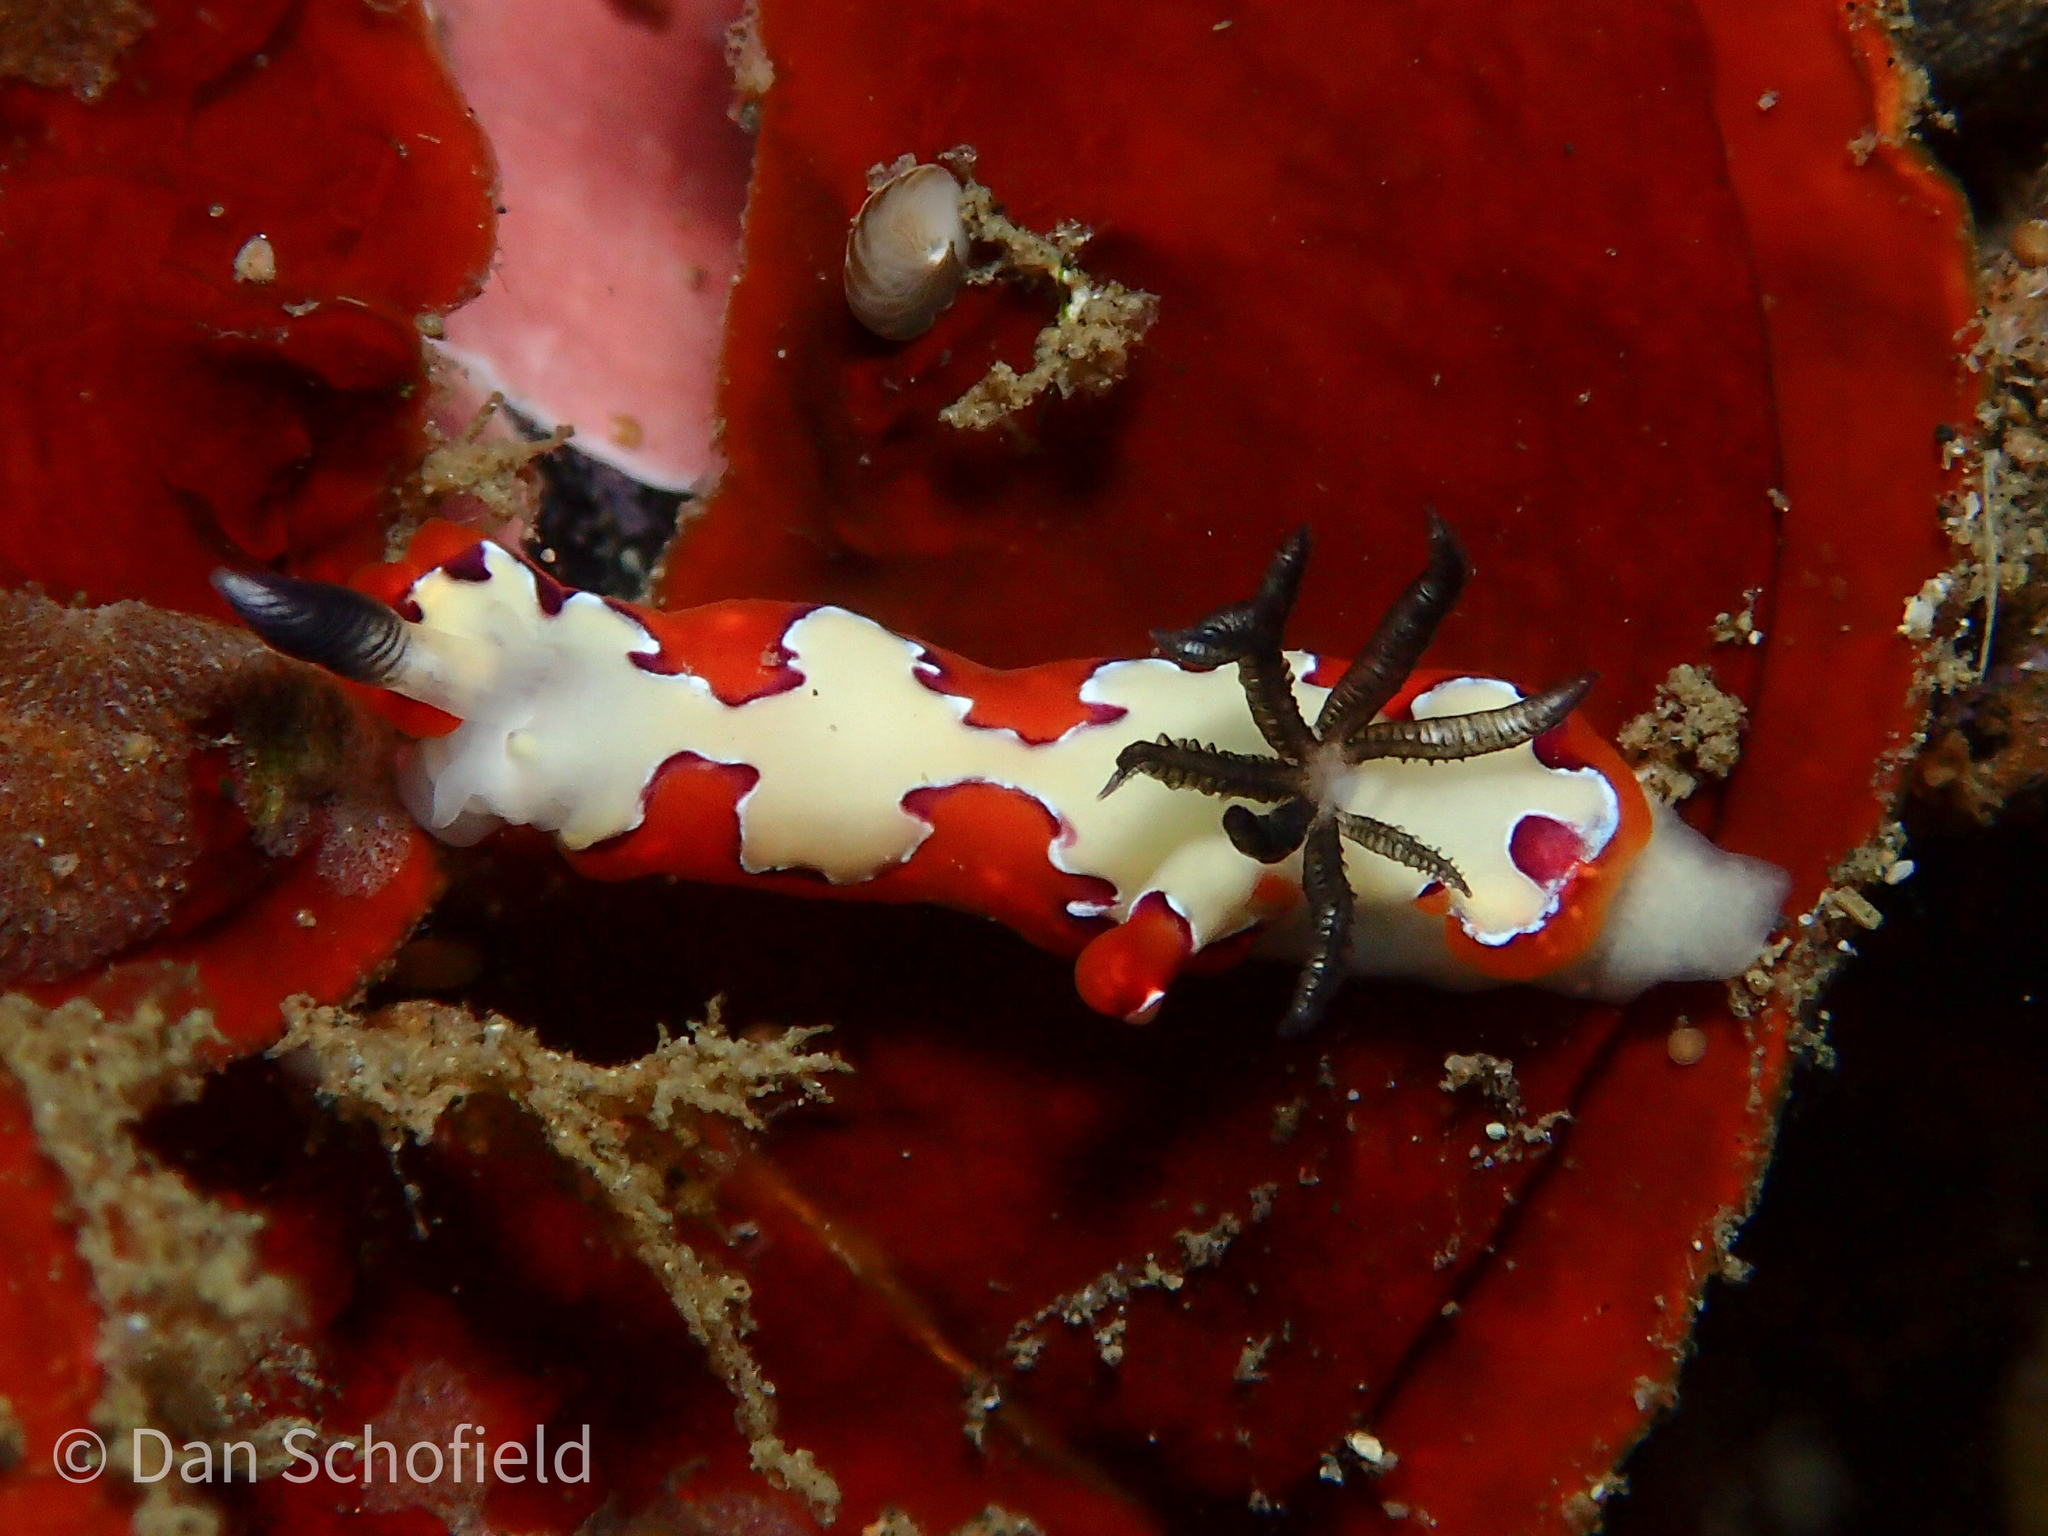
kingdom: Animalia
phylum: Mollusca
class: Gastropoda
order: Nudibranchia
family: Chromodorididae
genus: Goniobranchus
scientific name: Goniobranchus fidelis
